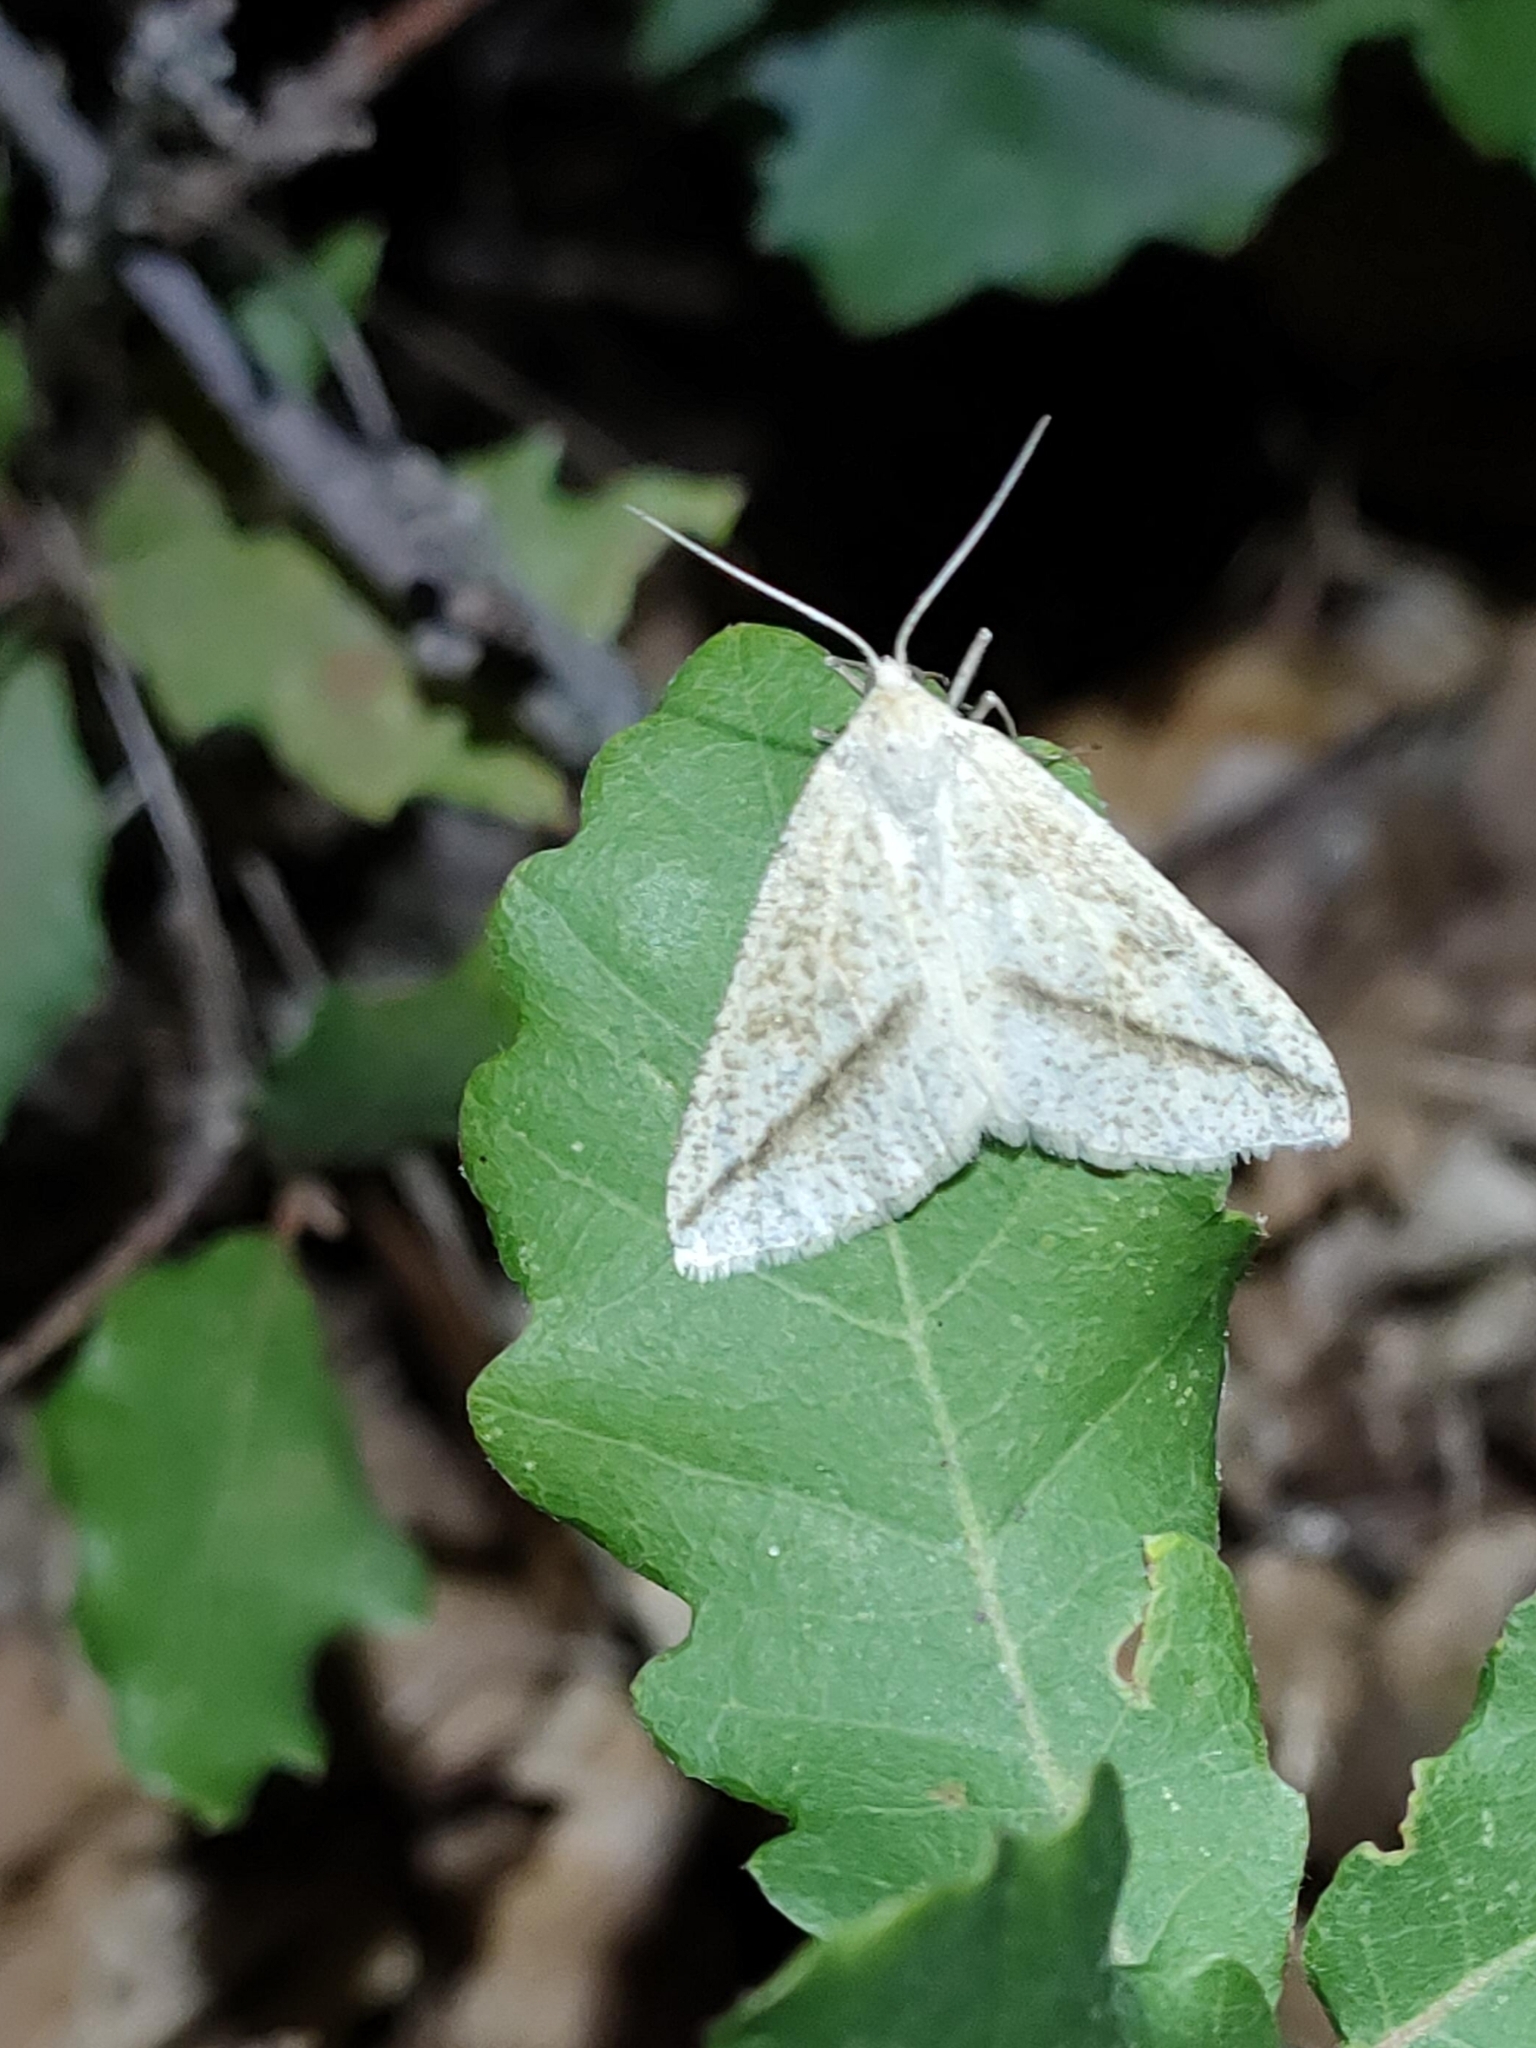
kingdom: Animalia
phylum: Arthropoda
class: Insecta
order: Lepidoptera
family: Geometridae
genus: Aspitates
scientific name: Aspitates gilvaria
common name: Straw belle
